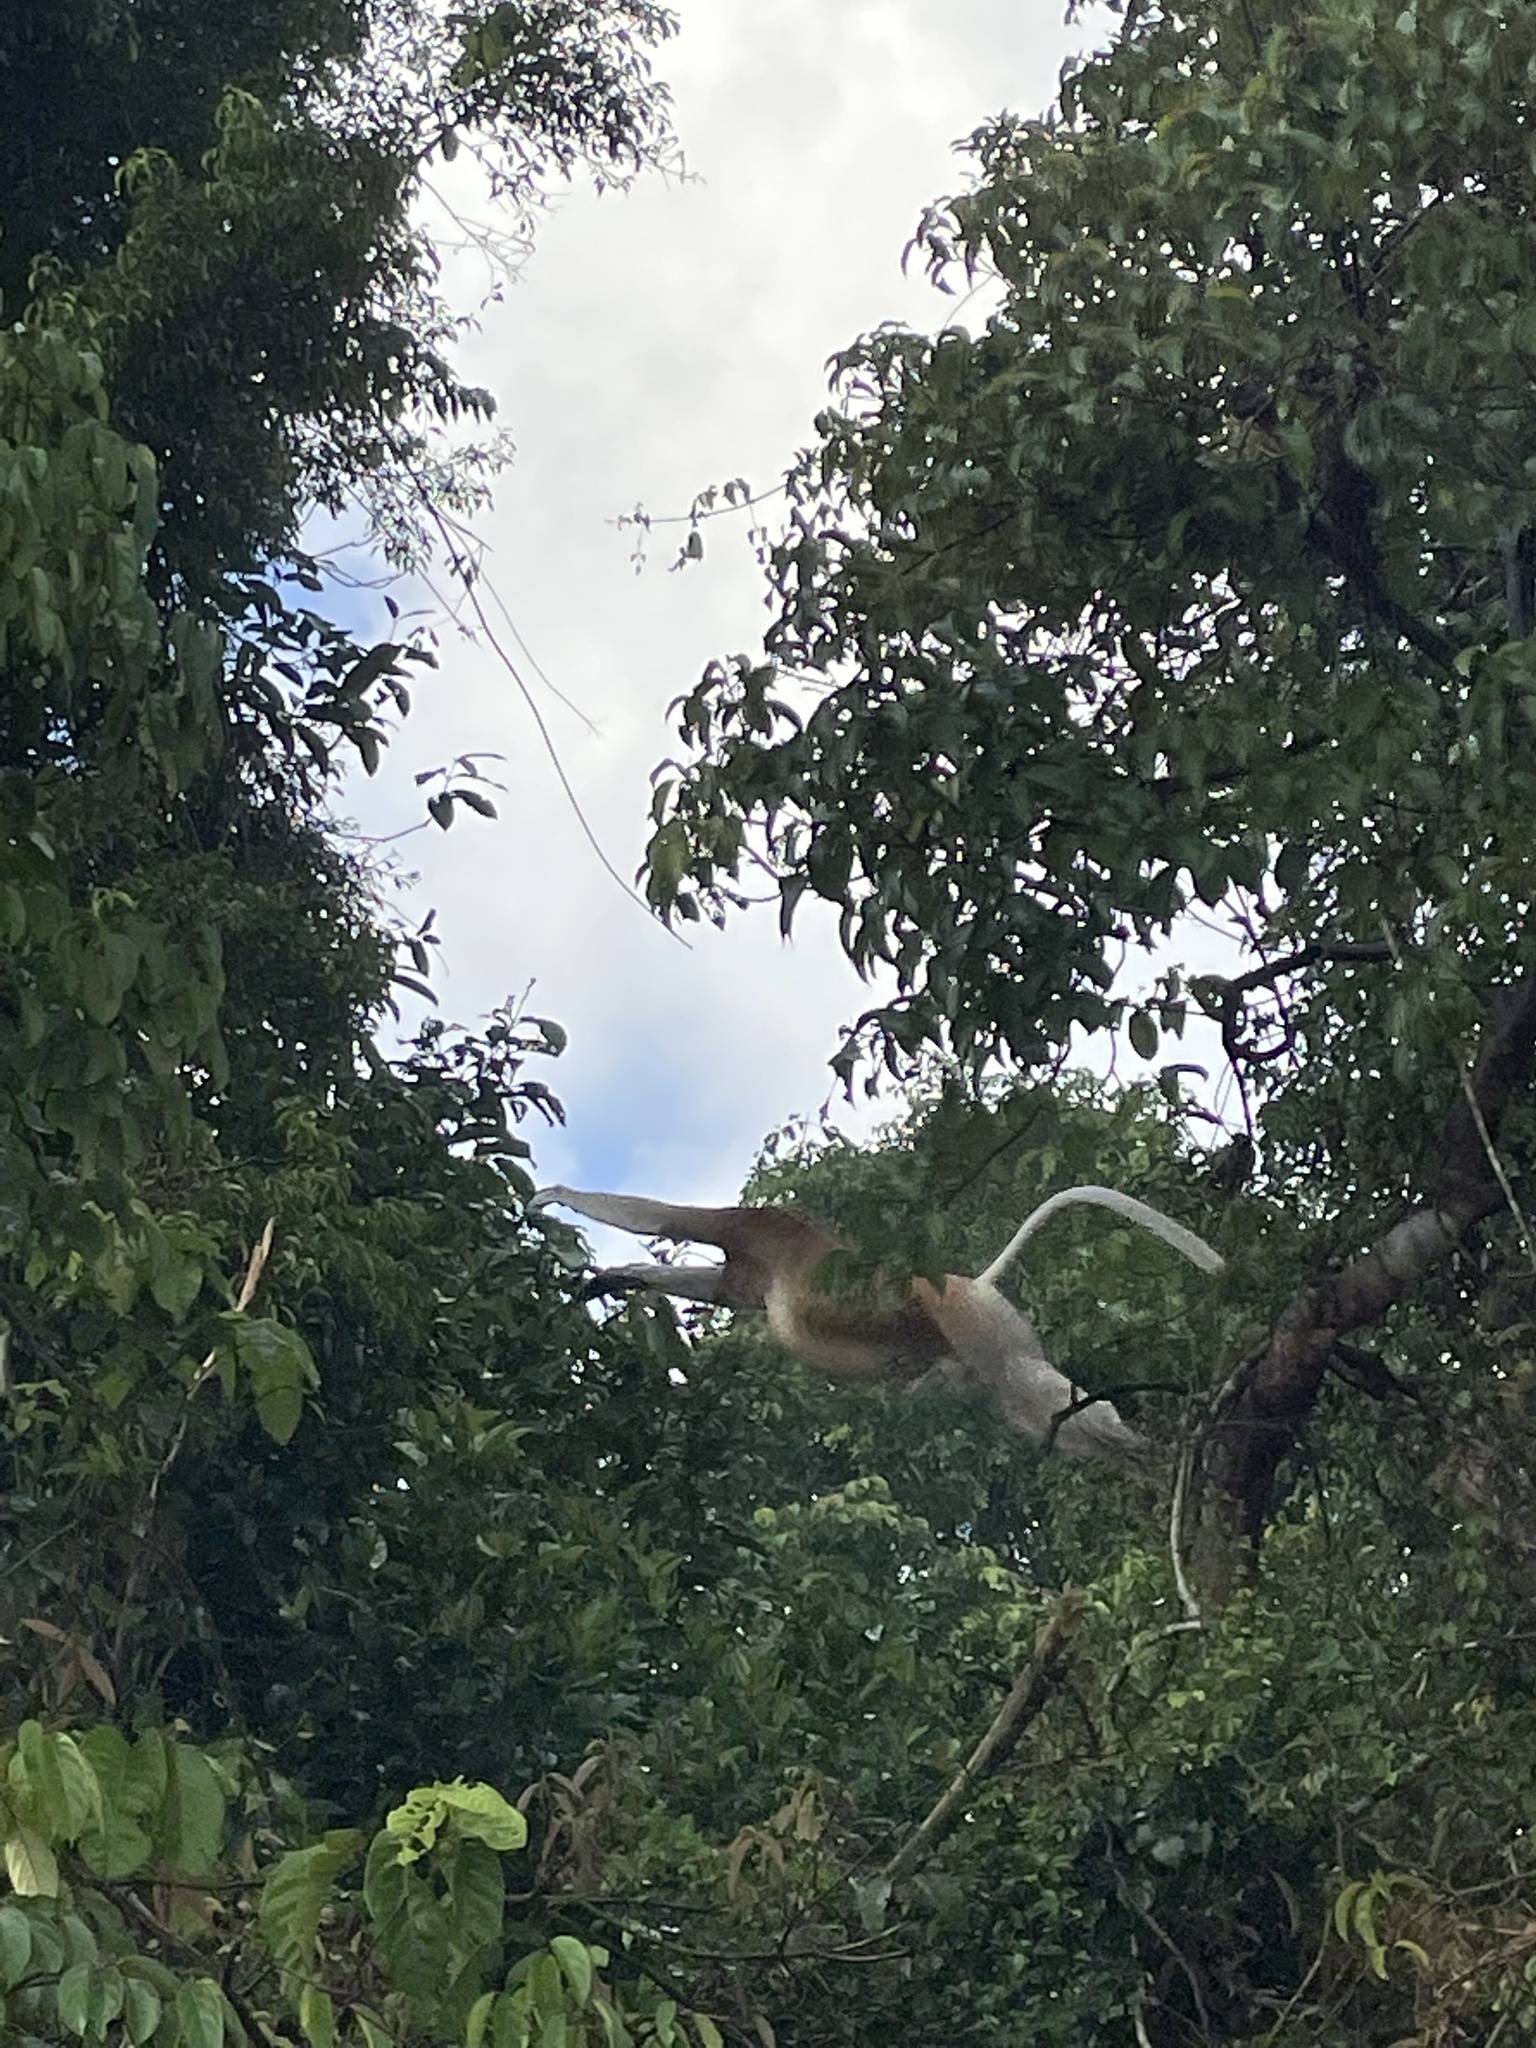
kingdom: Animalia
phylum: Chordata
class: Mammalia
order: Primates
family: Cercopithecidae
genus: Nasalis
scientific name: Nasalis larvatus
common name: Proboscis monkey
